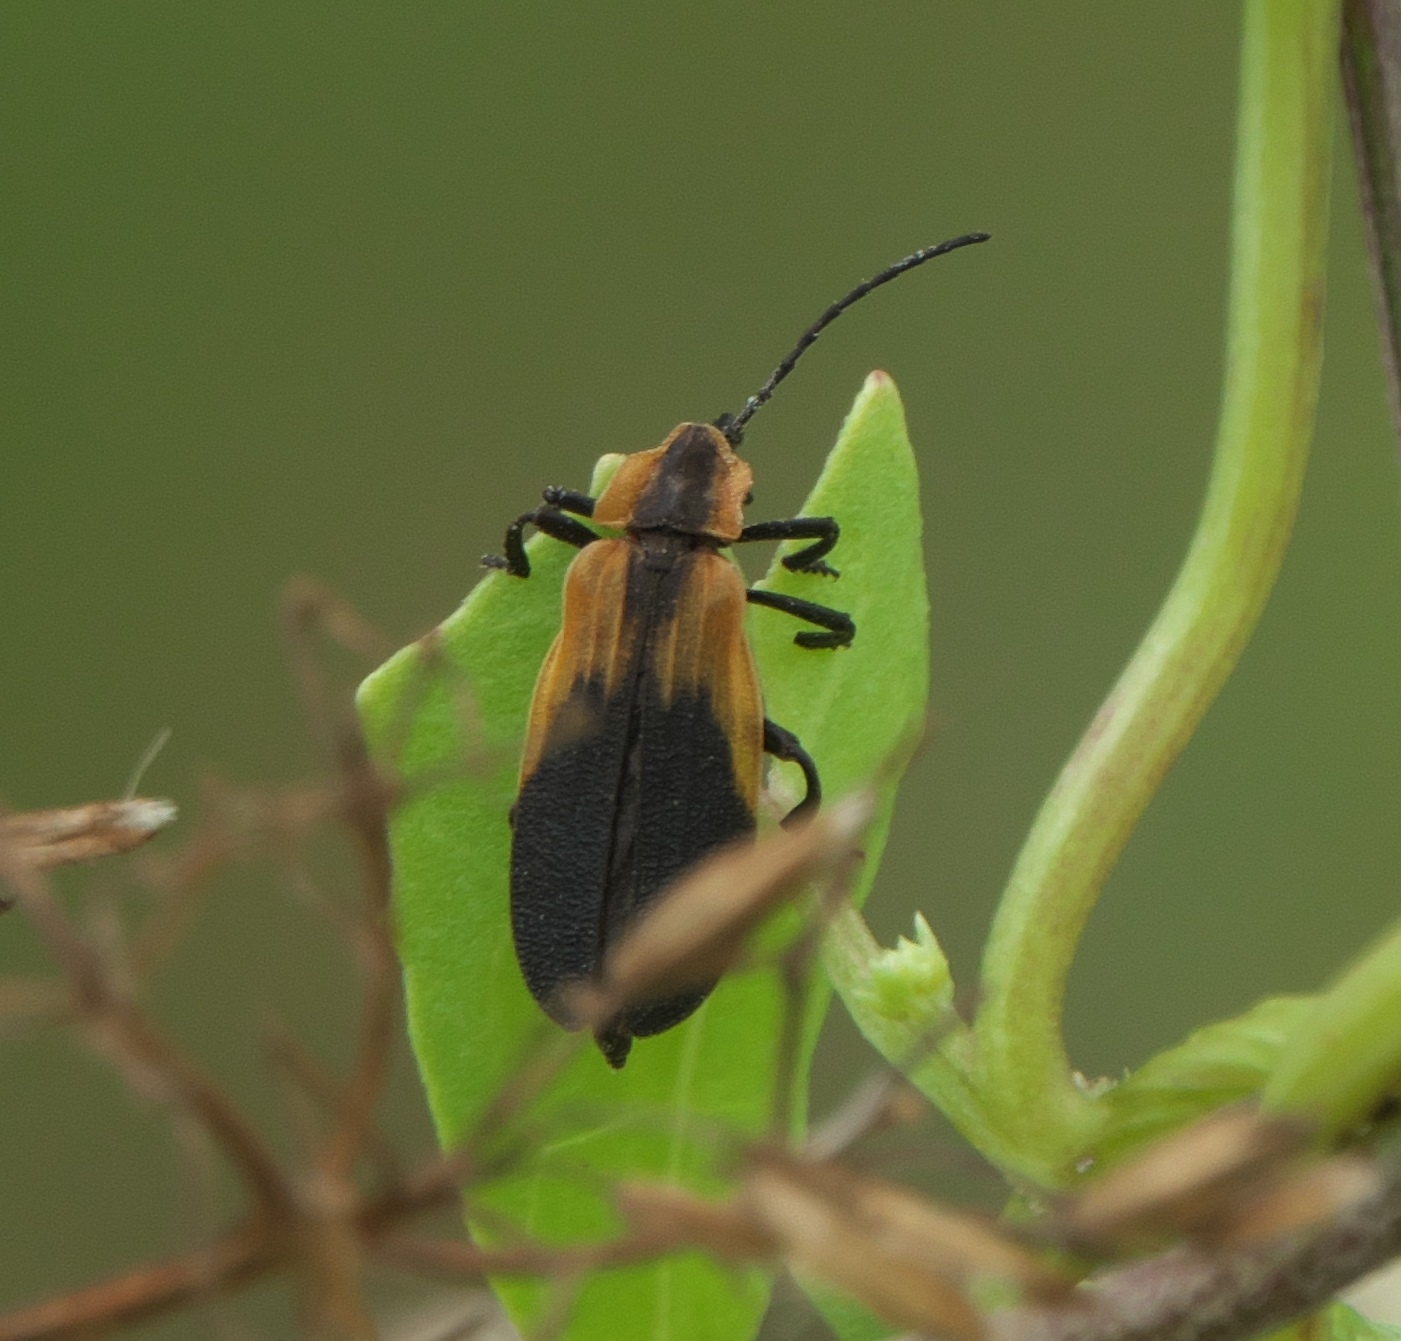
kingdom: Animalia
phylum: Arthropoda
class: Insecta
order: Coleoptera
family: Lycidae
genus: Lyconotus
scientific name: Lyconotus lateralis
